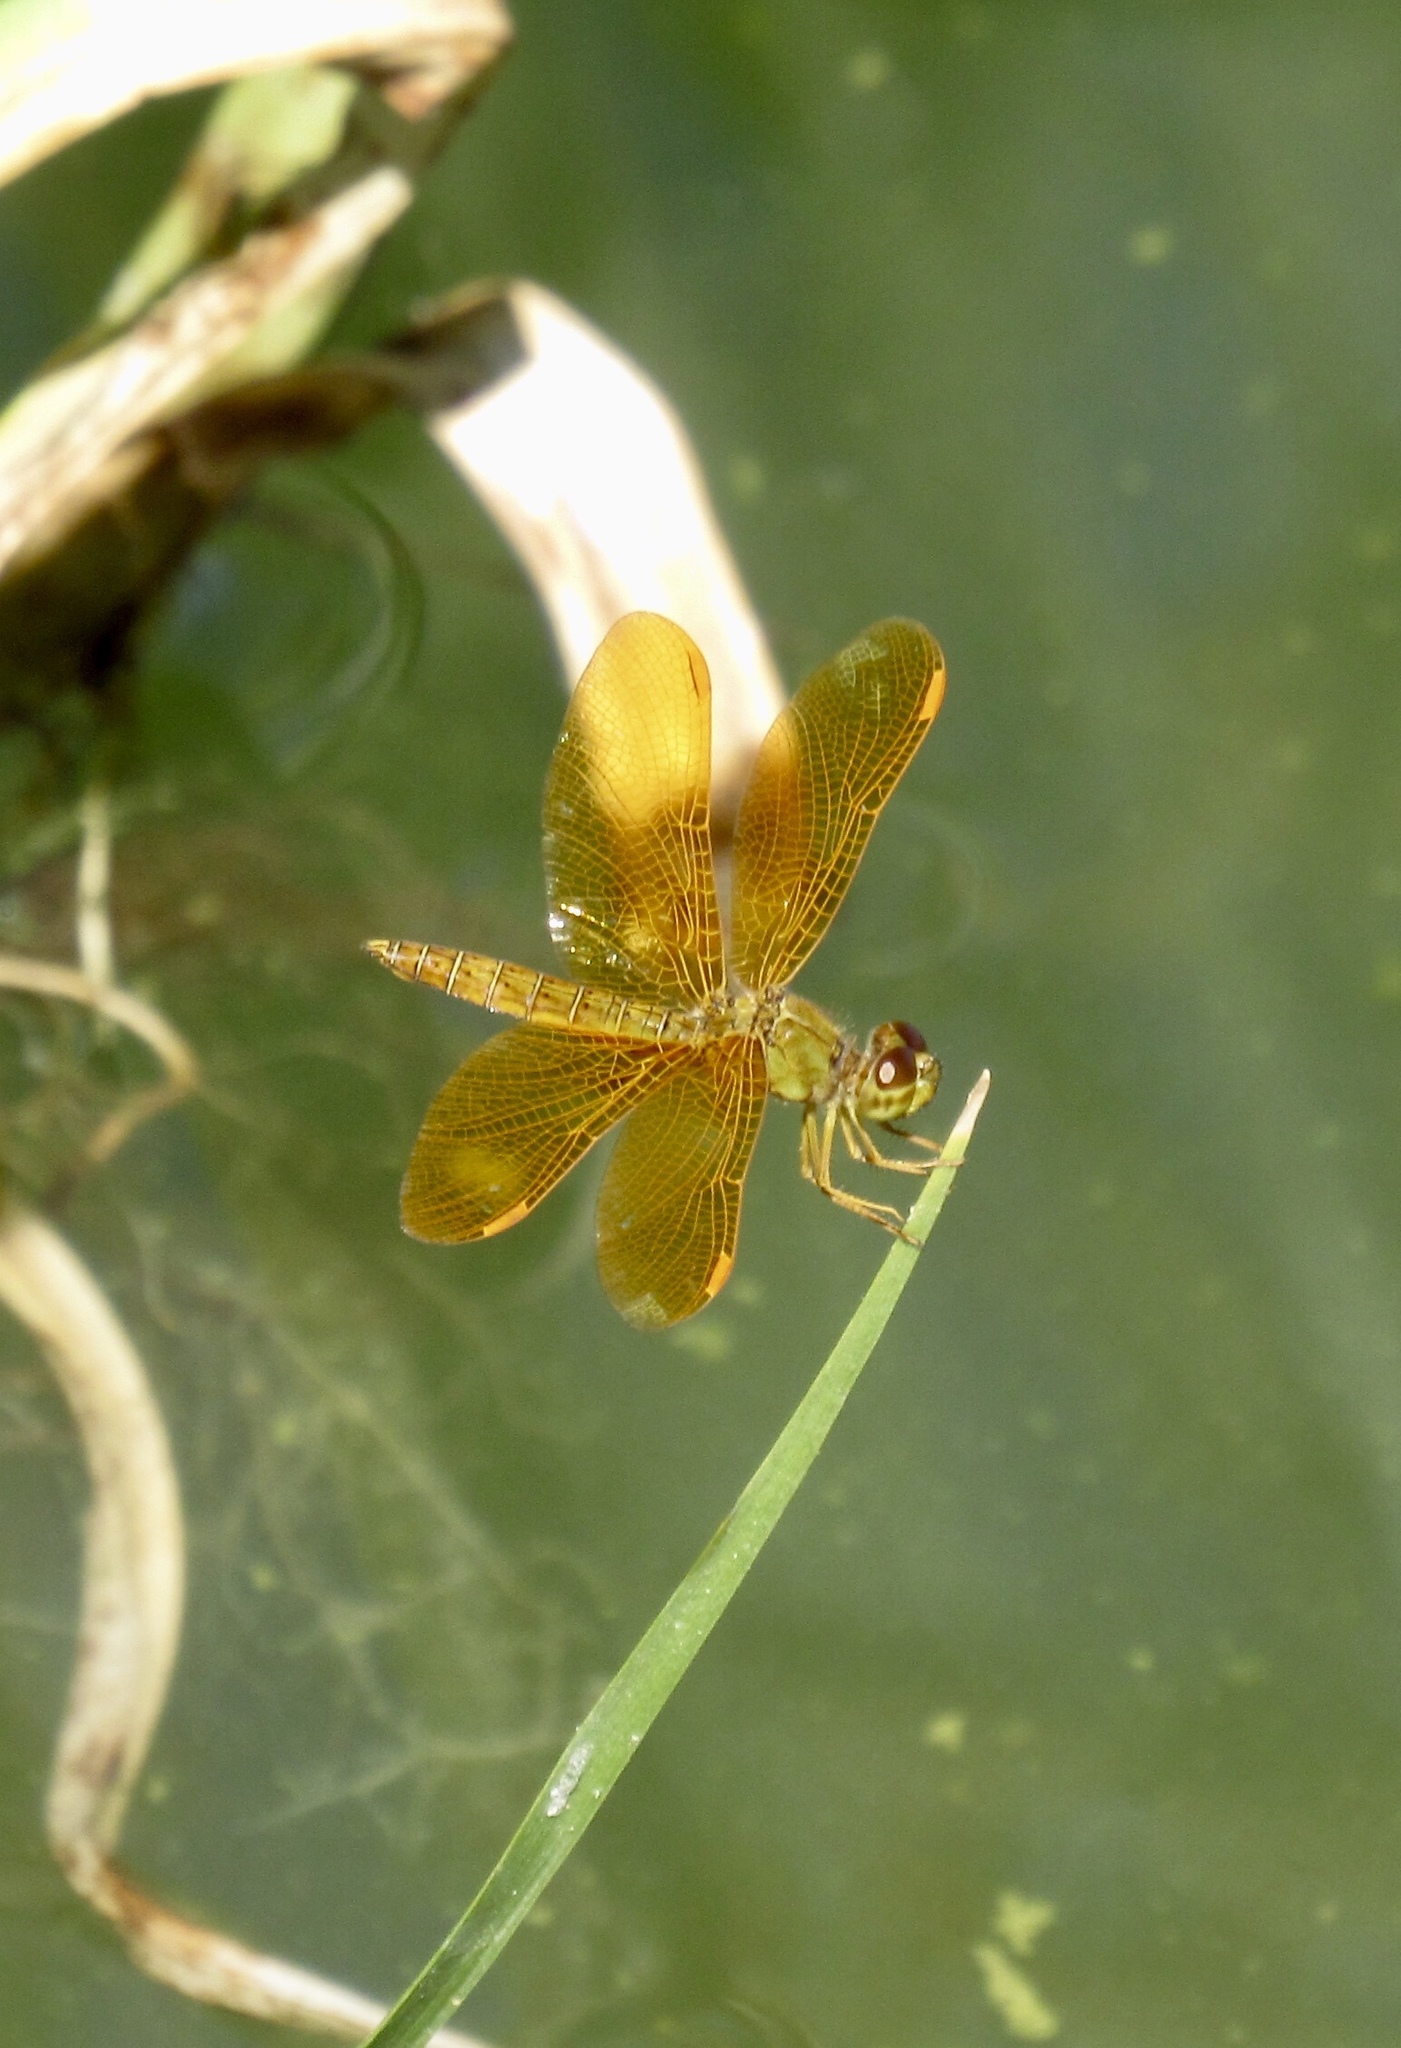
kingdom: Animalia
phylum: Arthropoda
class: Insecta
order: Odonata
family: Libellulidae
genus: Perithemis
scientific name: Perithemis intensa
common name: Mexican amberwing
